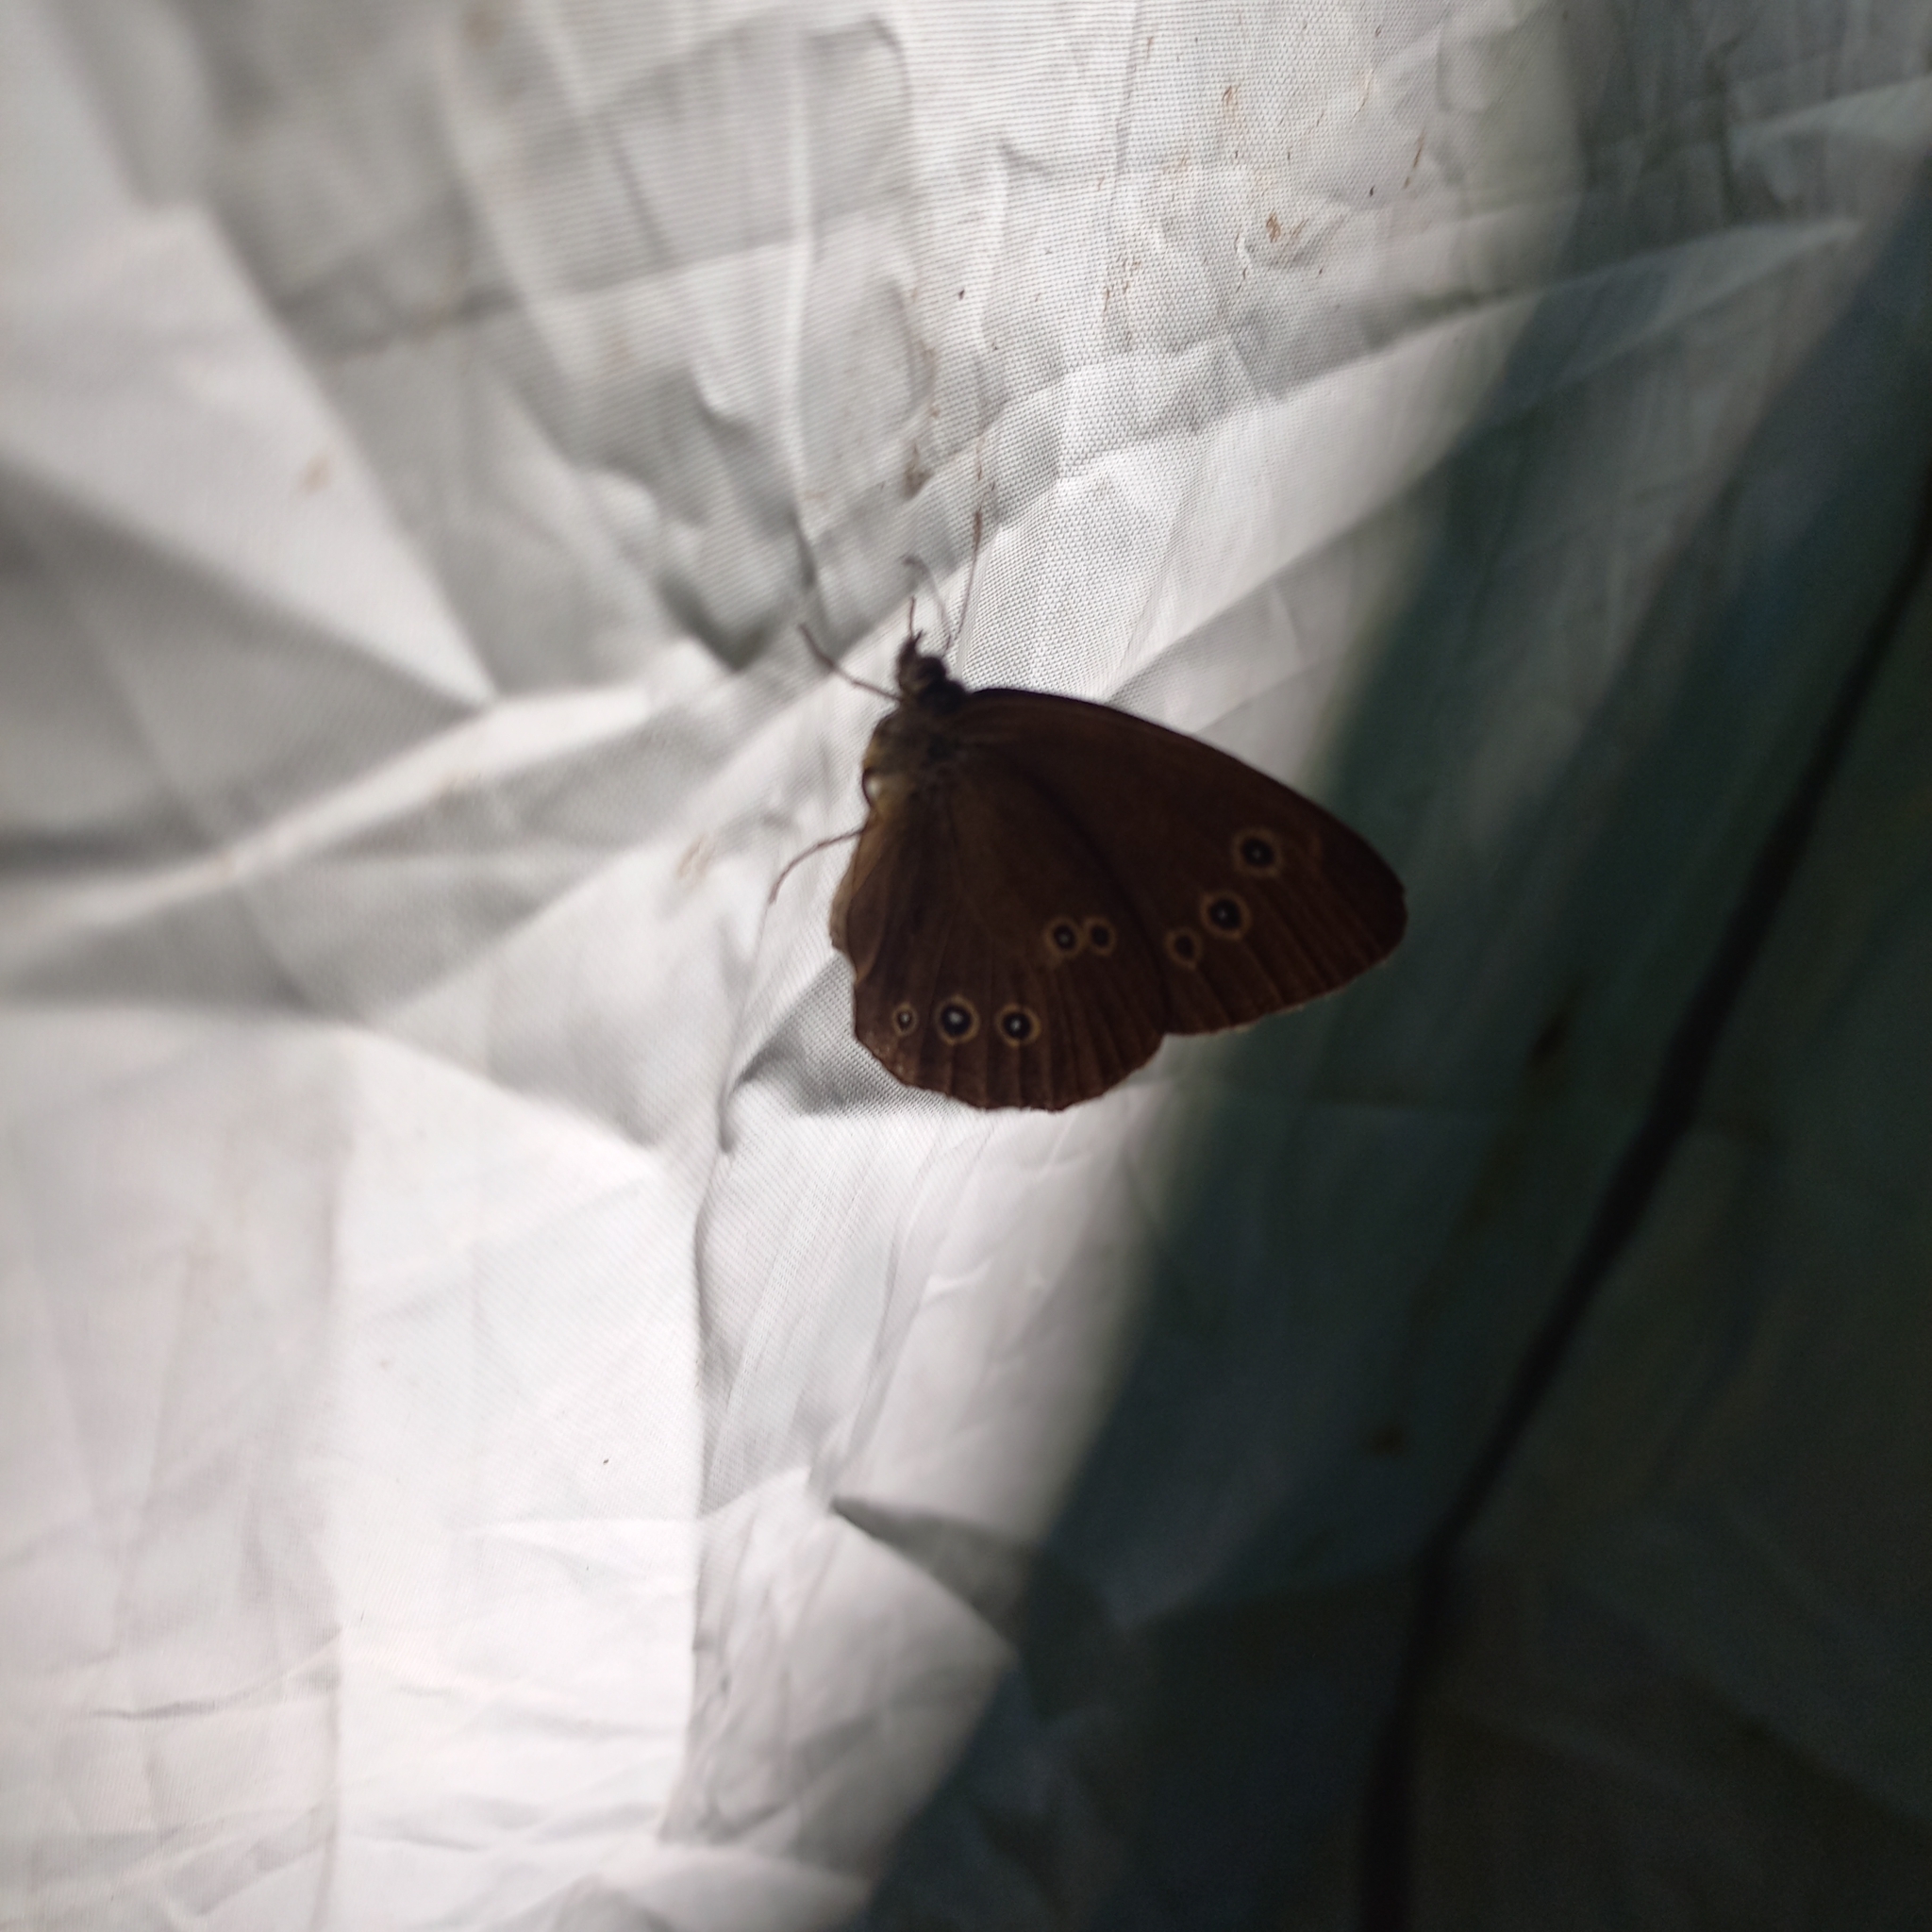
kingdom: Animalia
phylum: Arthropoda
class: Insecta
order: Lepidoptera
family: Nymphalidae
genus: Aphantopus
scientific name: Aphantopus hyperantus
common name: Ringlet
